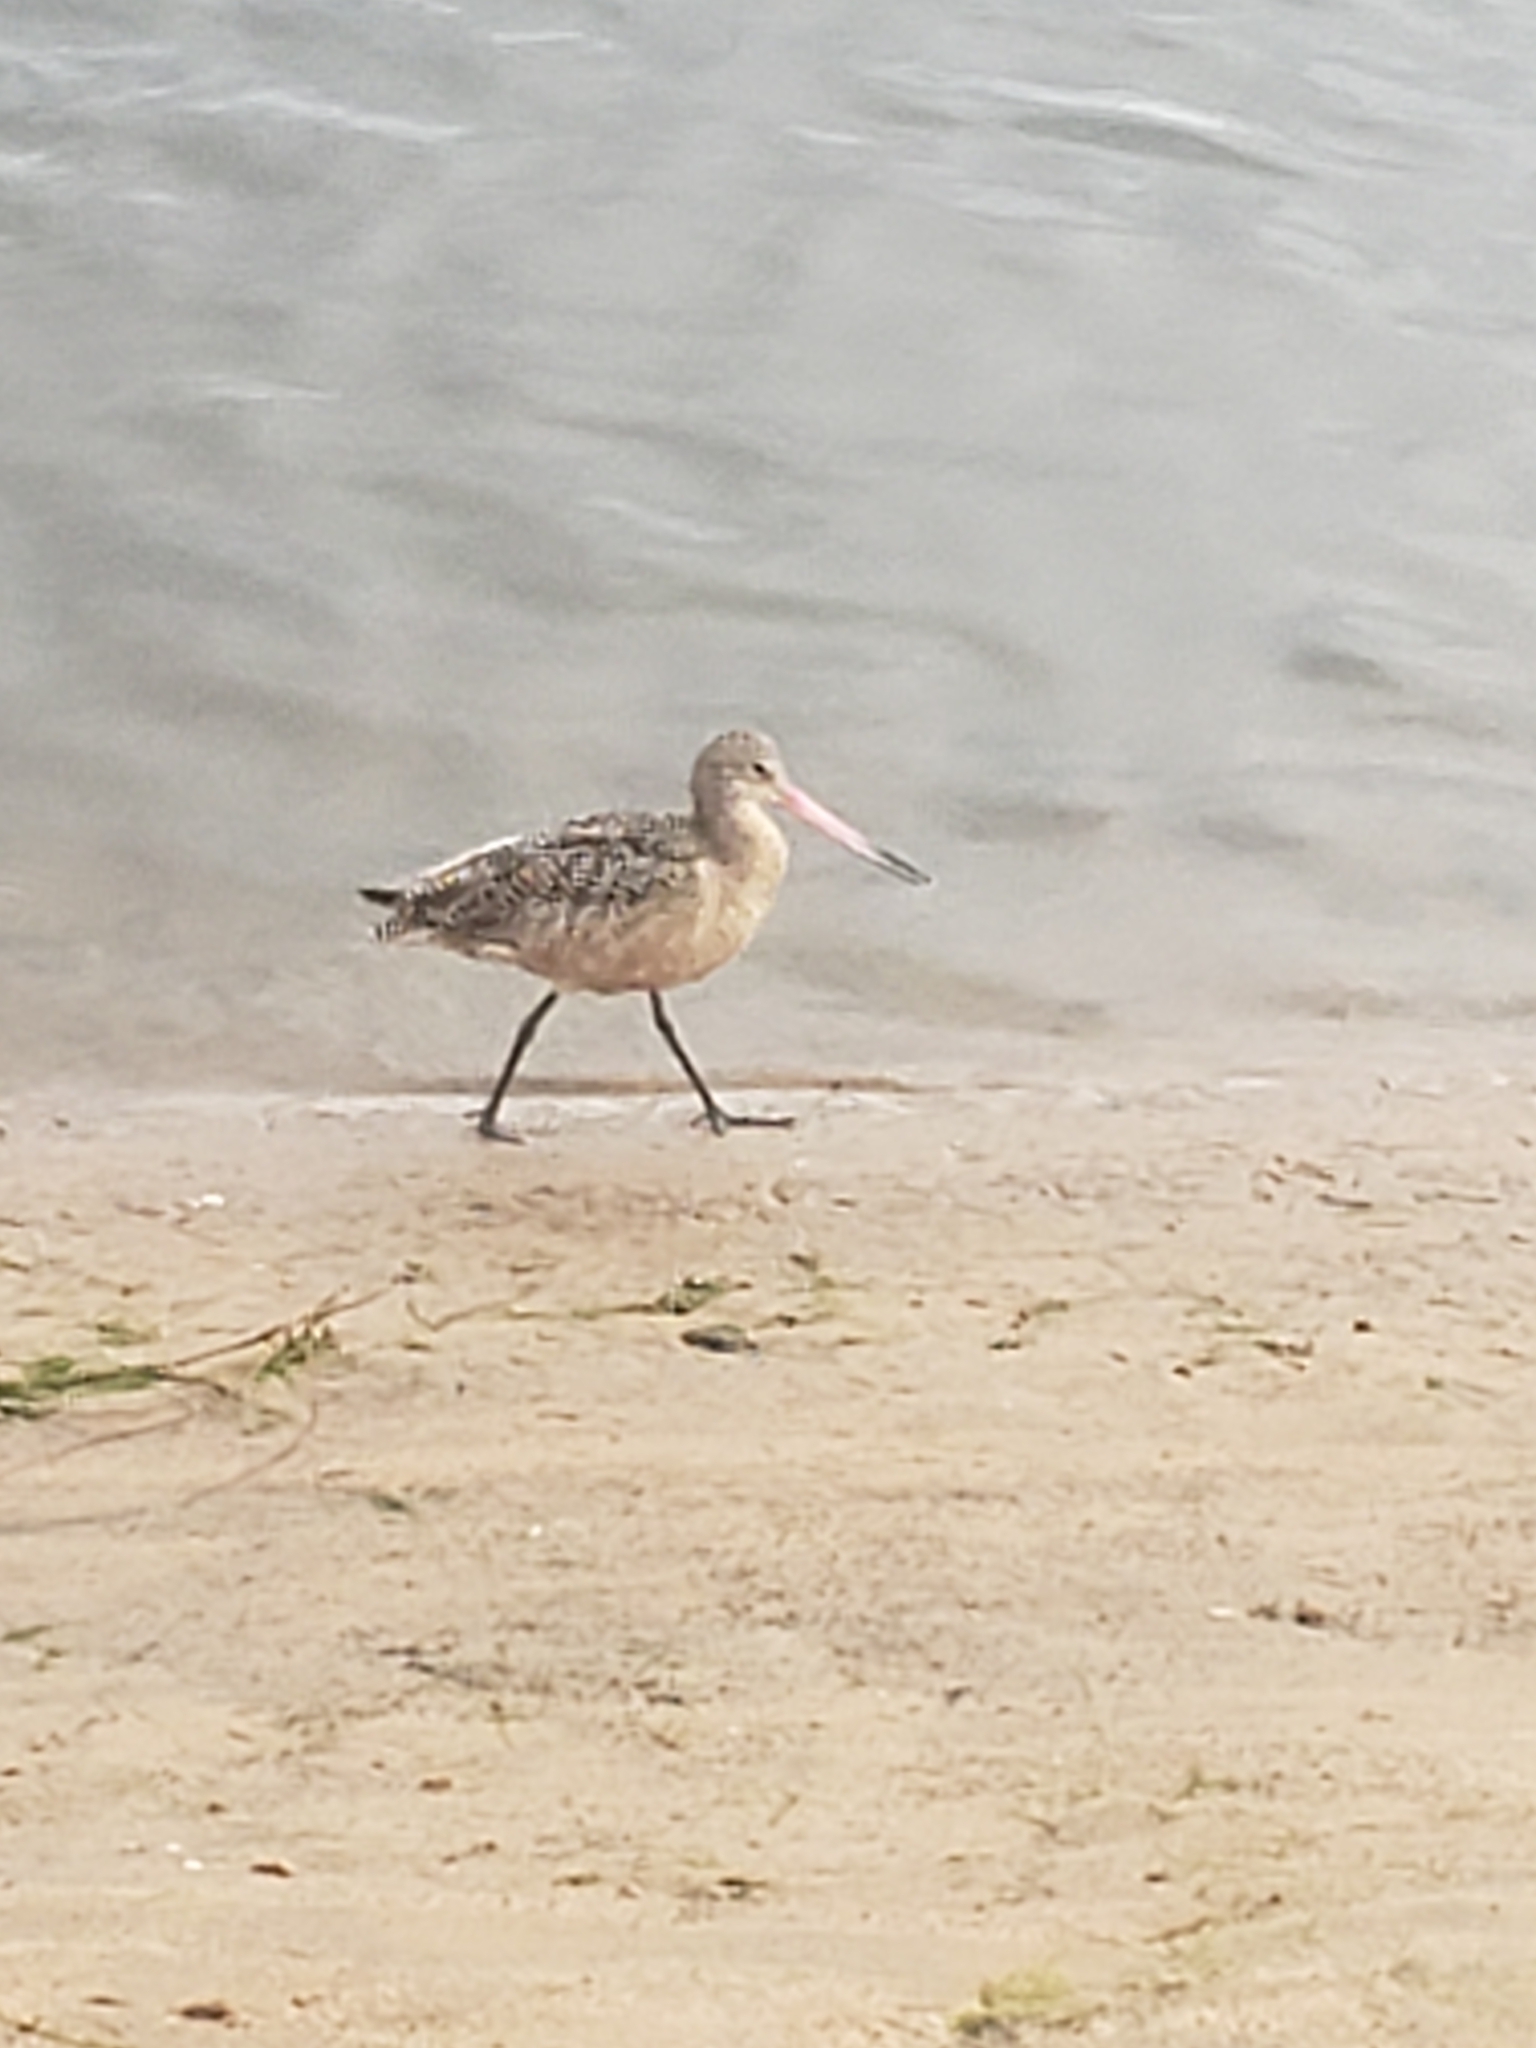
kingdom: Animalia
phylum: Chordata
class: Aves
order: Charadriiformes
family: Scolopacidae
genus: Limosa
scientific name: Limosa fedoa
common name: Marbled godwit
